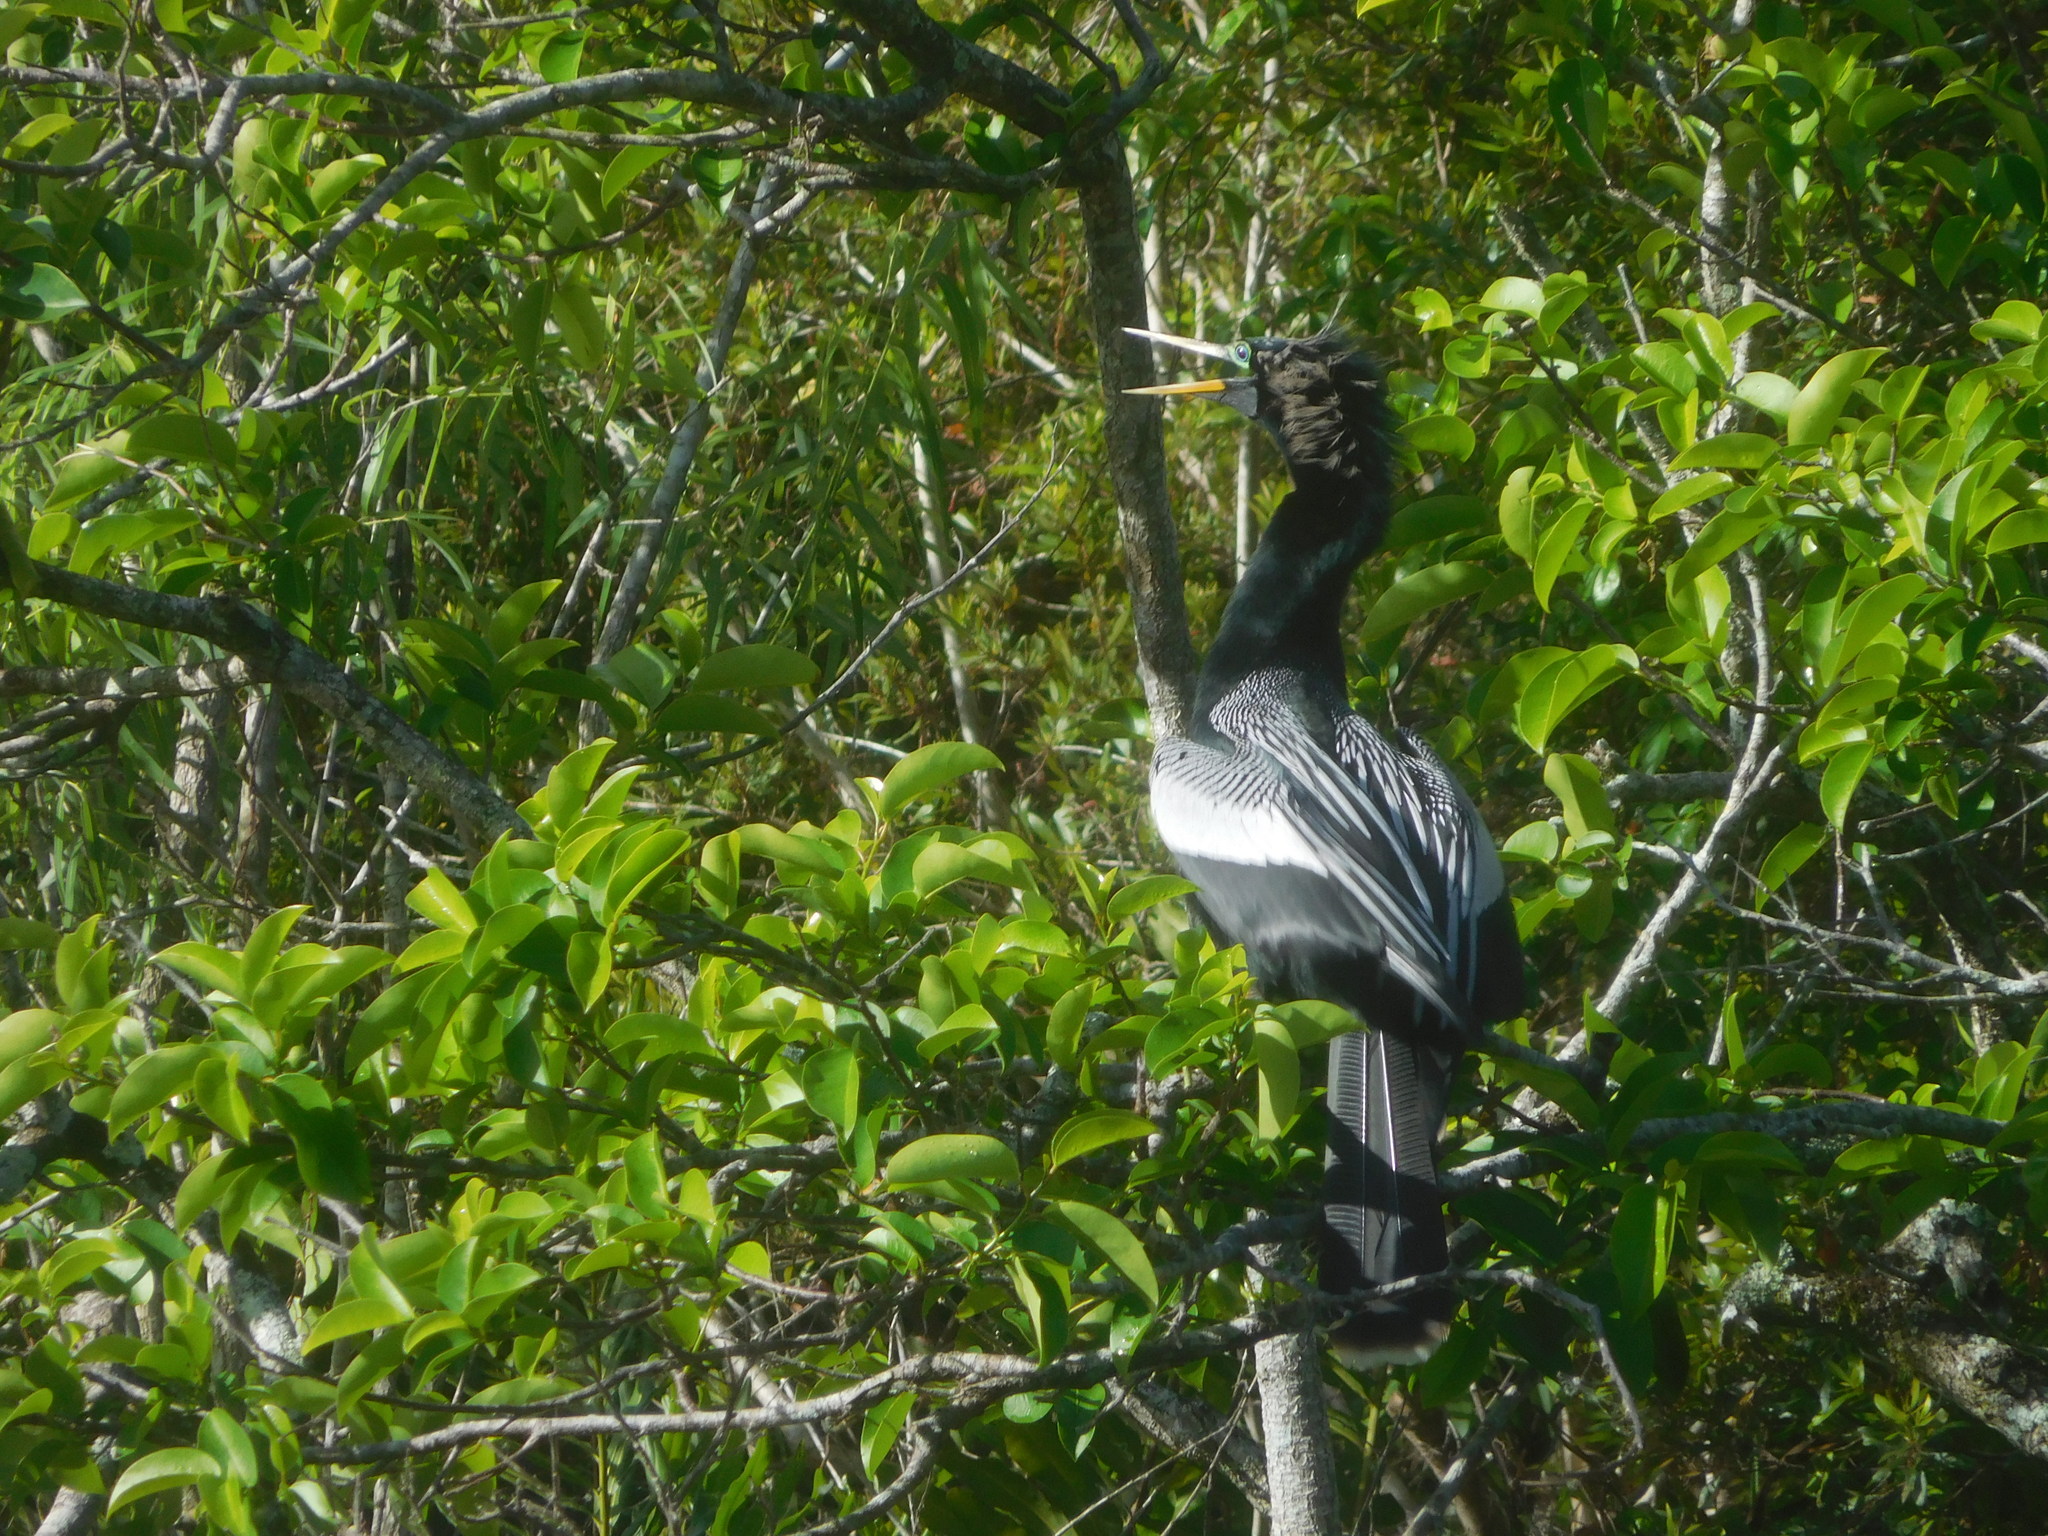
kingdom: Animalia
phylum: Chordata
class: Aves
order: Suliformes
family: Anhingidae
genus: Anhinga
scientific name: Anhinga anhinga
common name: Anhinga
